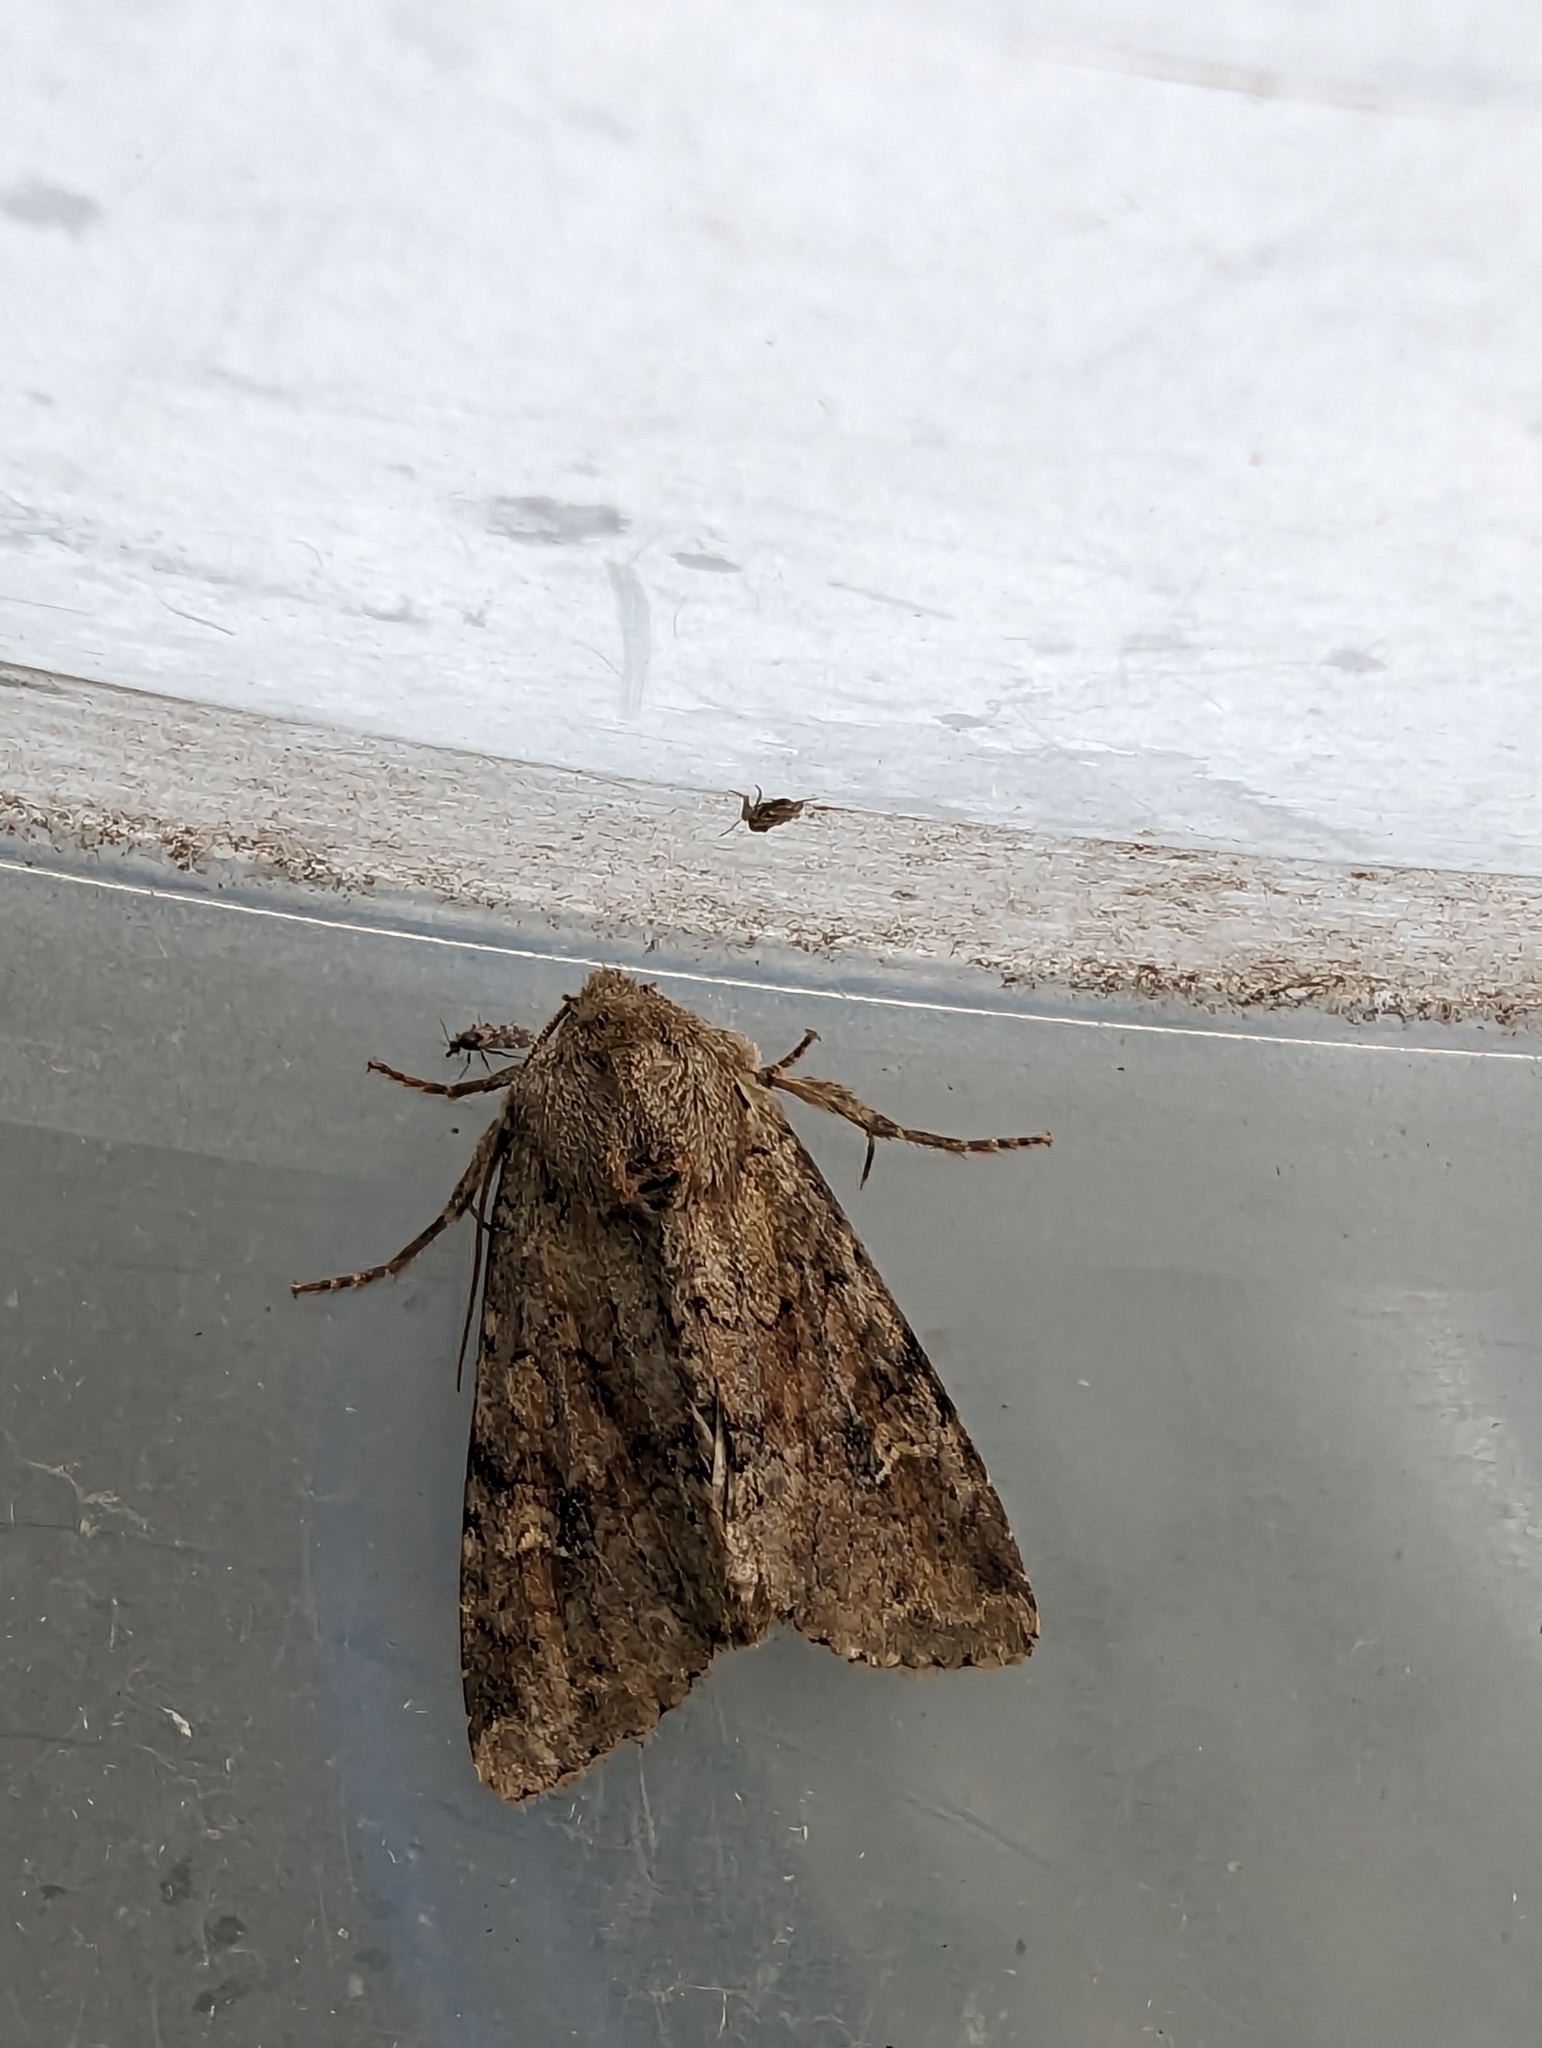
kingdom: Animalia
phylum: Arthropoda
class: Insecta
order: Lepidoptera
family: Noctuidae
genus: Apamea
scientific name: Apamea sordens
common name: Rustic shoulder-knot
